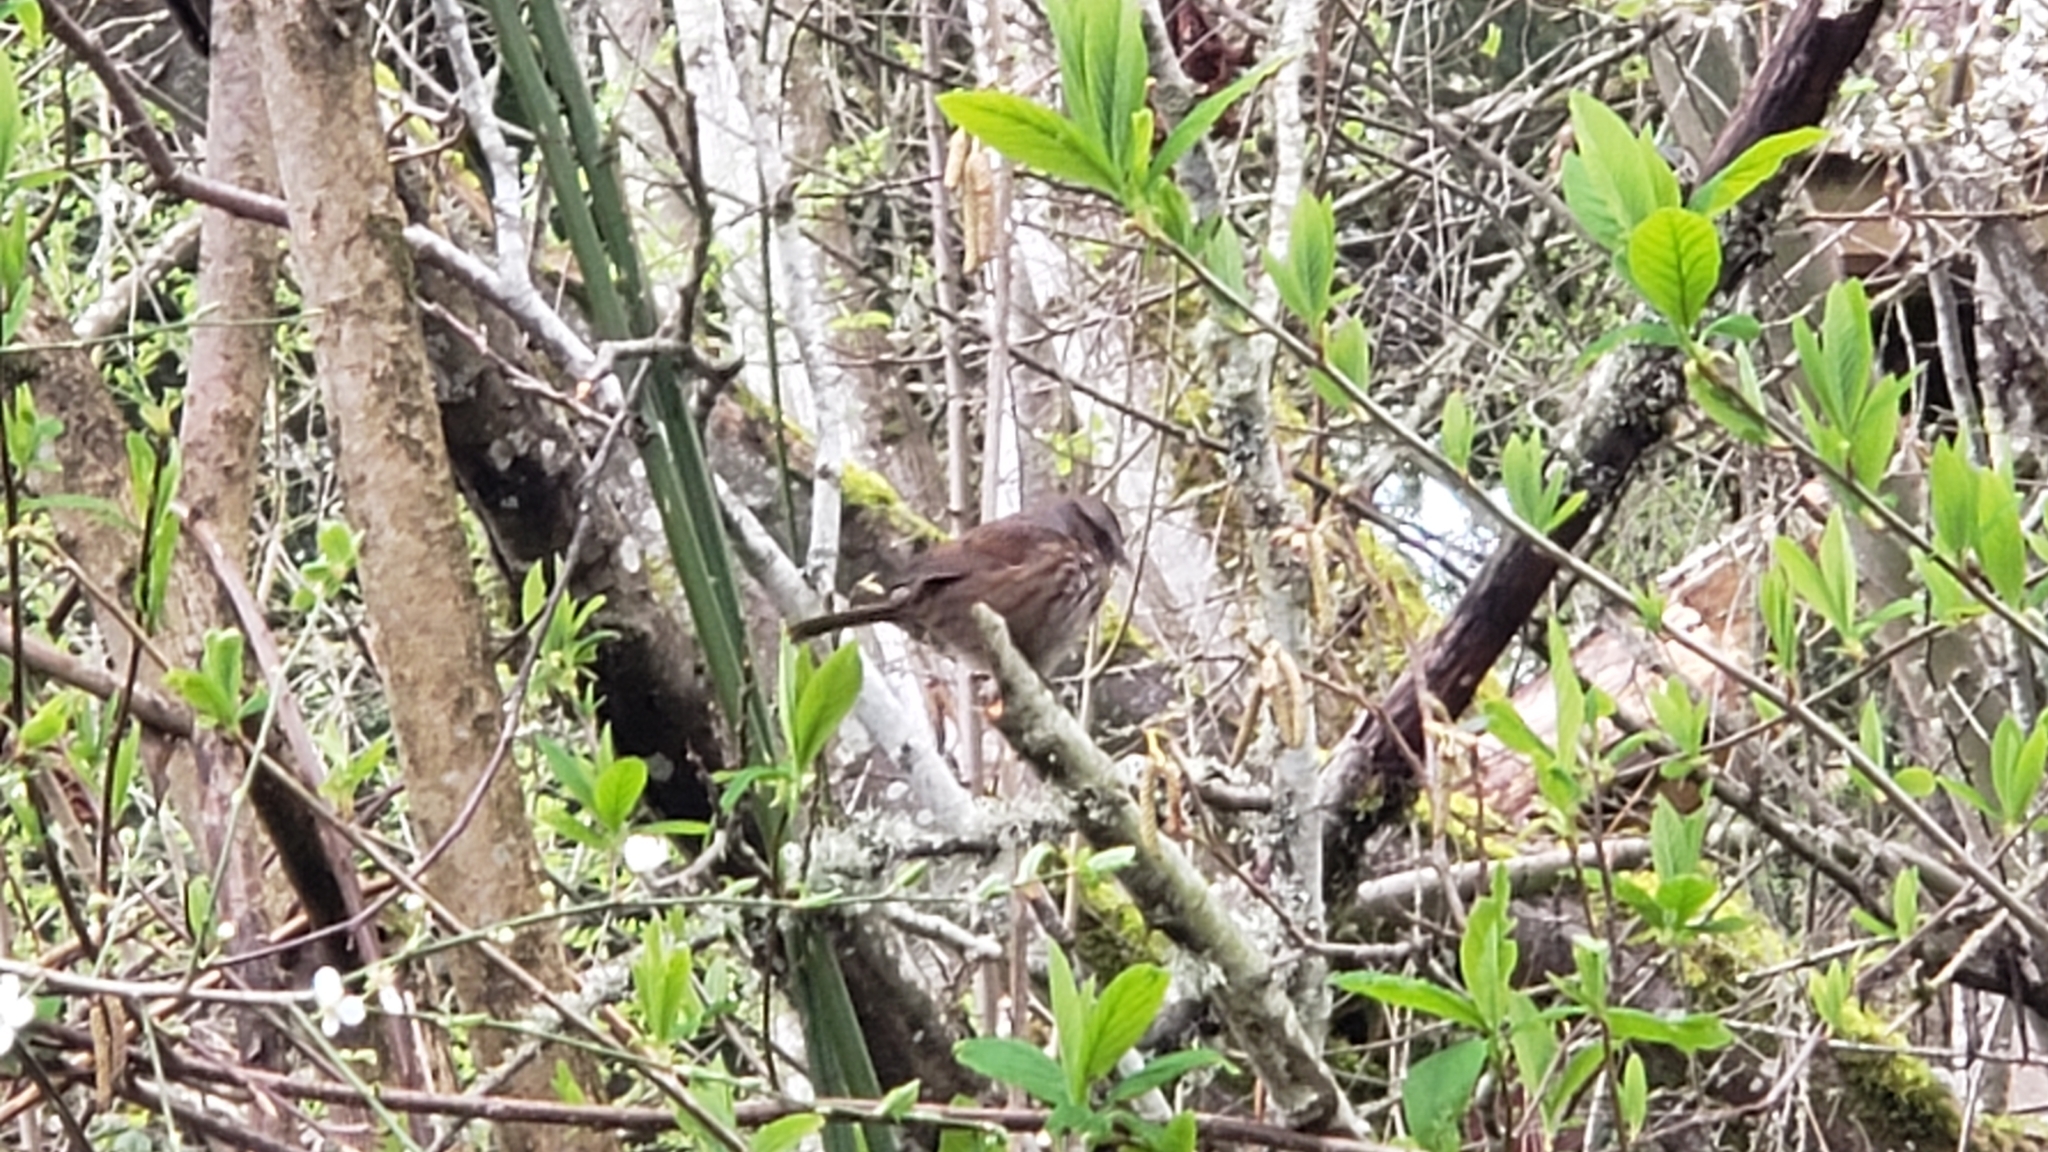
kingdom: Animalia
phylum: Chordata
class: Aves
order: Passeriformes
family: Passerellidae
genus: Melospiza
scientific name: Melospiza melodia
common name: Song sparrow
